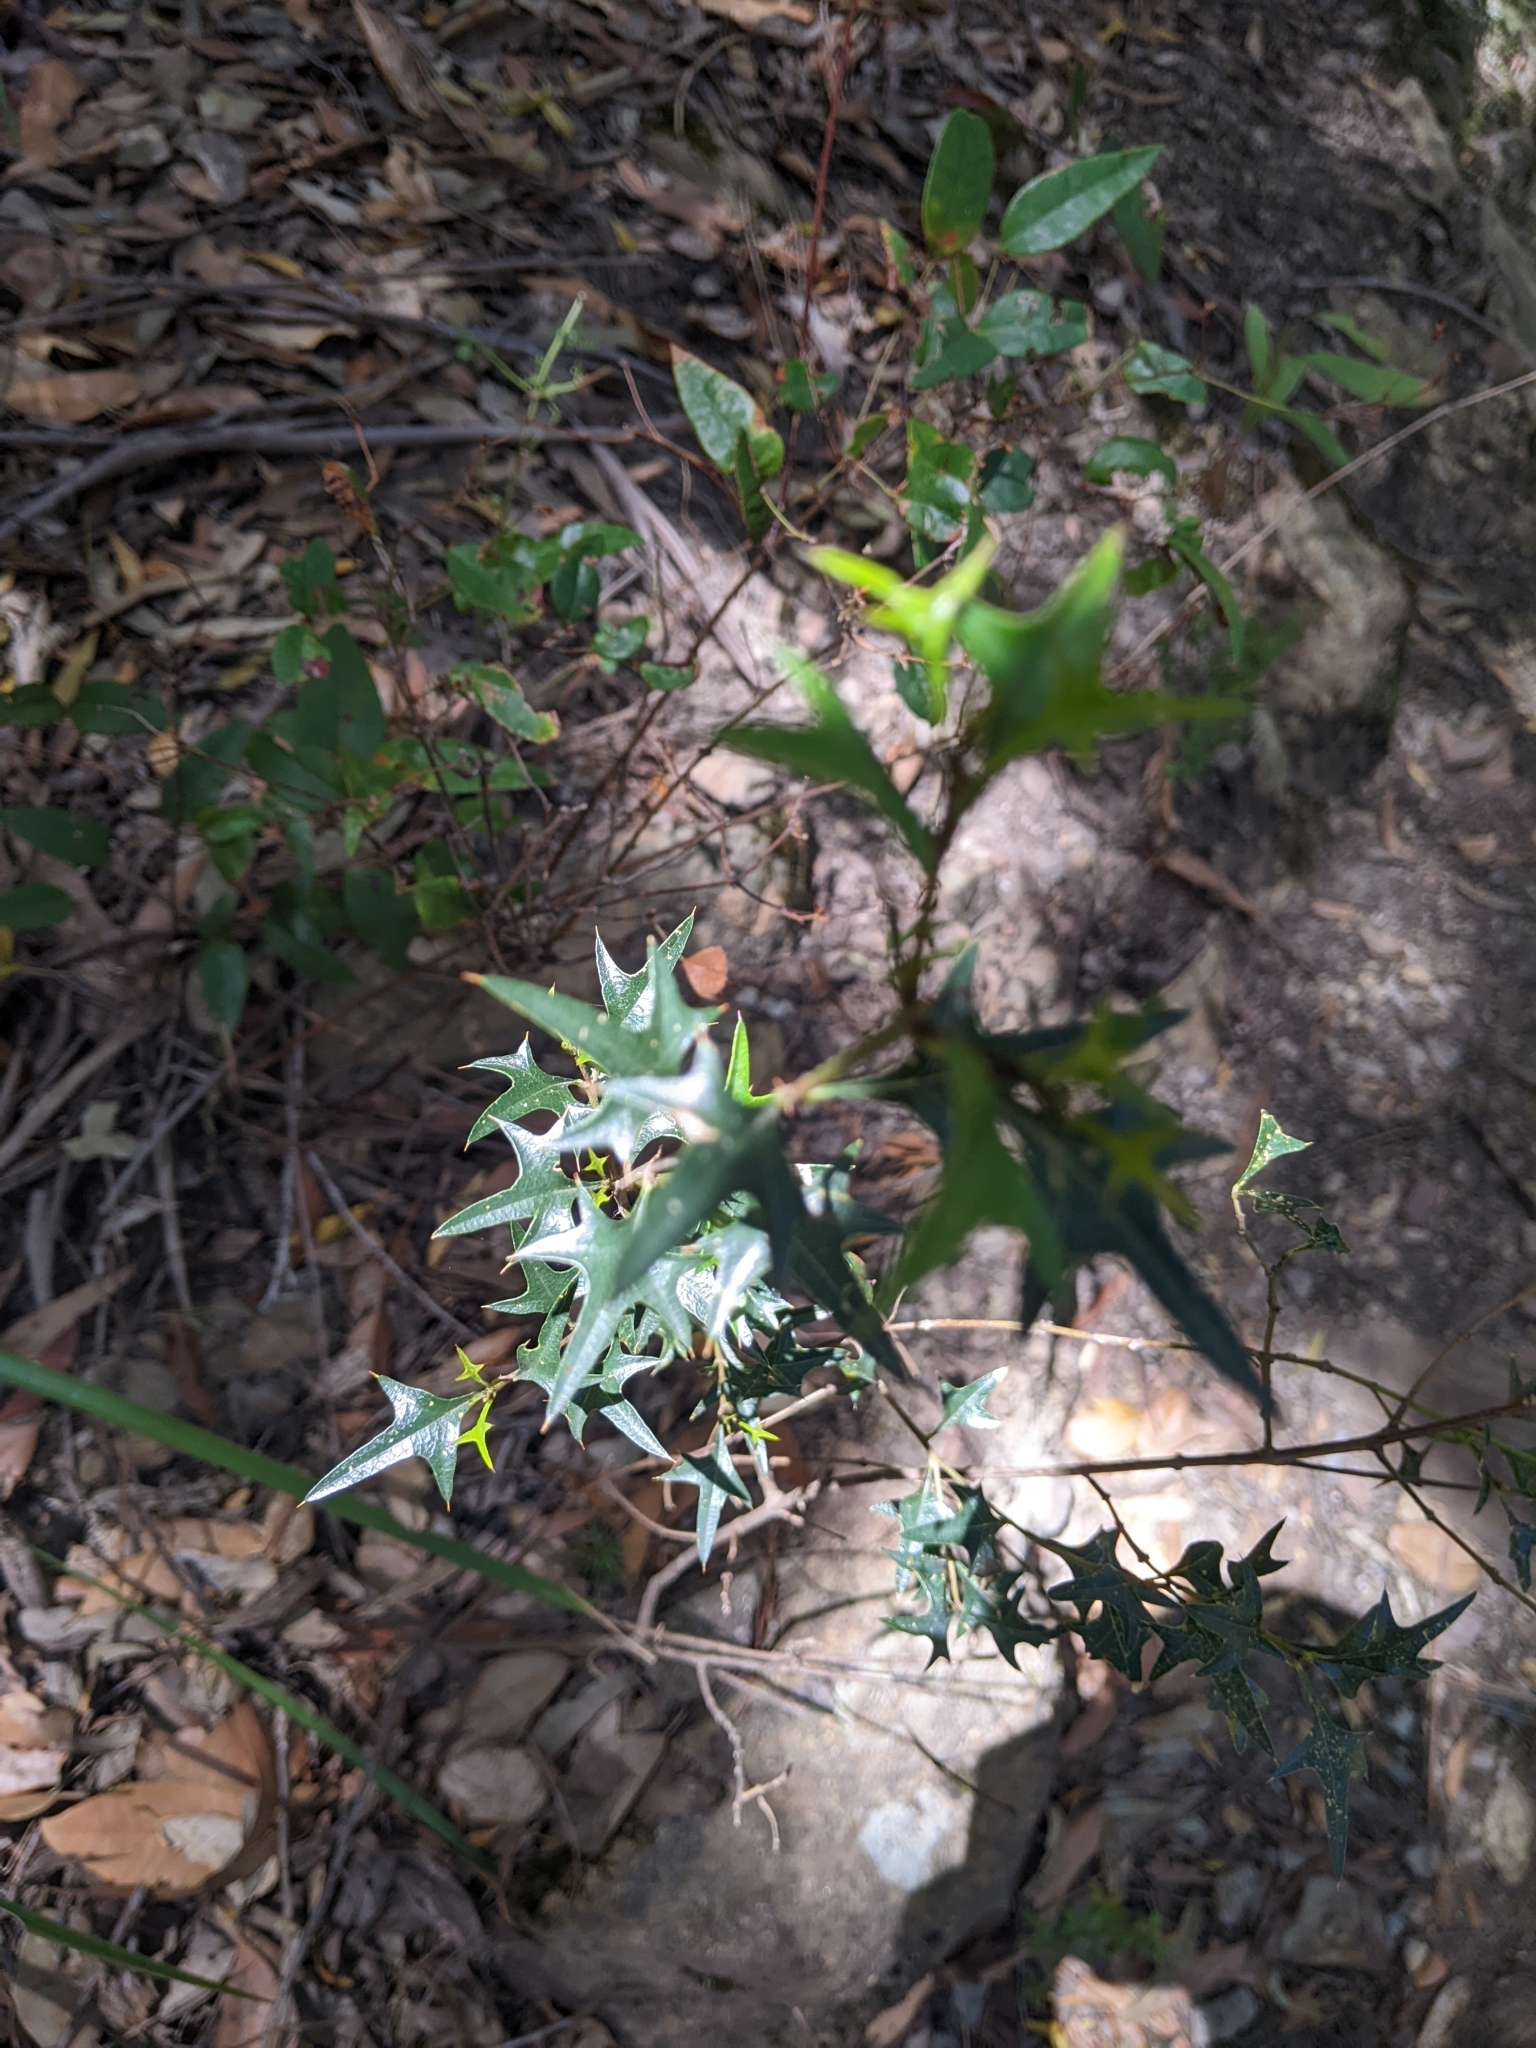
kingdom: Plantae
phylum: Tracheophyta
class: Magnoliopsida
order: Fabales
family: Fabaceae
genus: Podolobium
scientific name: Podolobium ilicifolium
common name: Native holly
